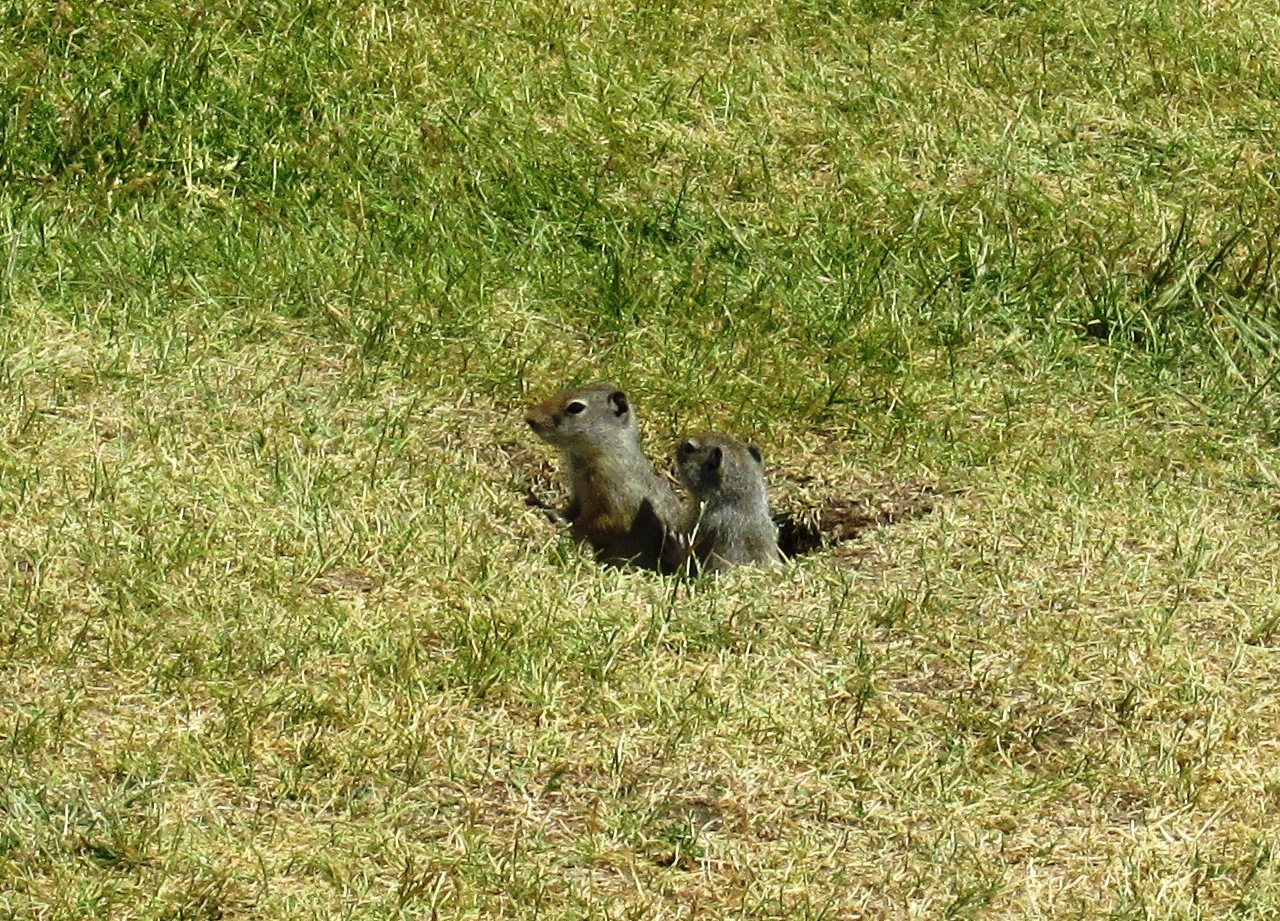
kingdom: Animalia
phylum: Chordata
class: Mammalia
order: Rodentia
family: Sciuridae
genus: Urocitellus
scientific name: Urocitellus armatus
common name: Uinta ground squirrel
